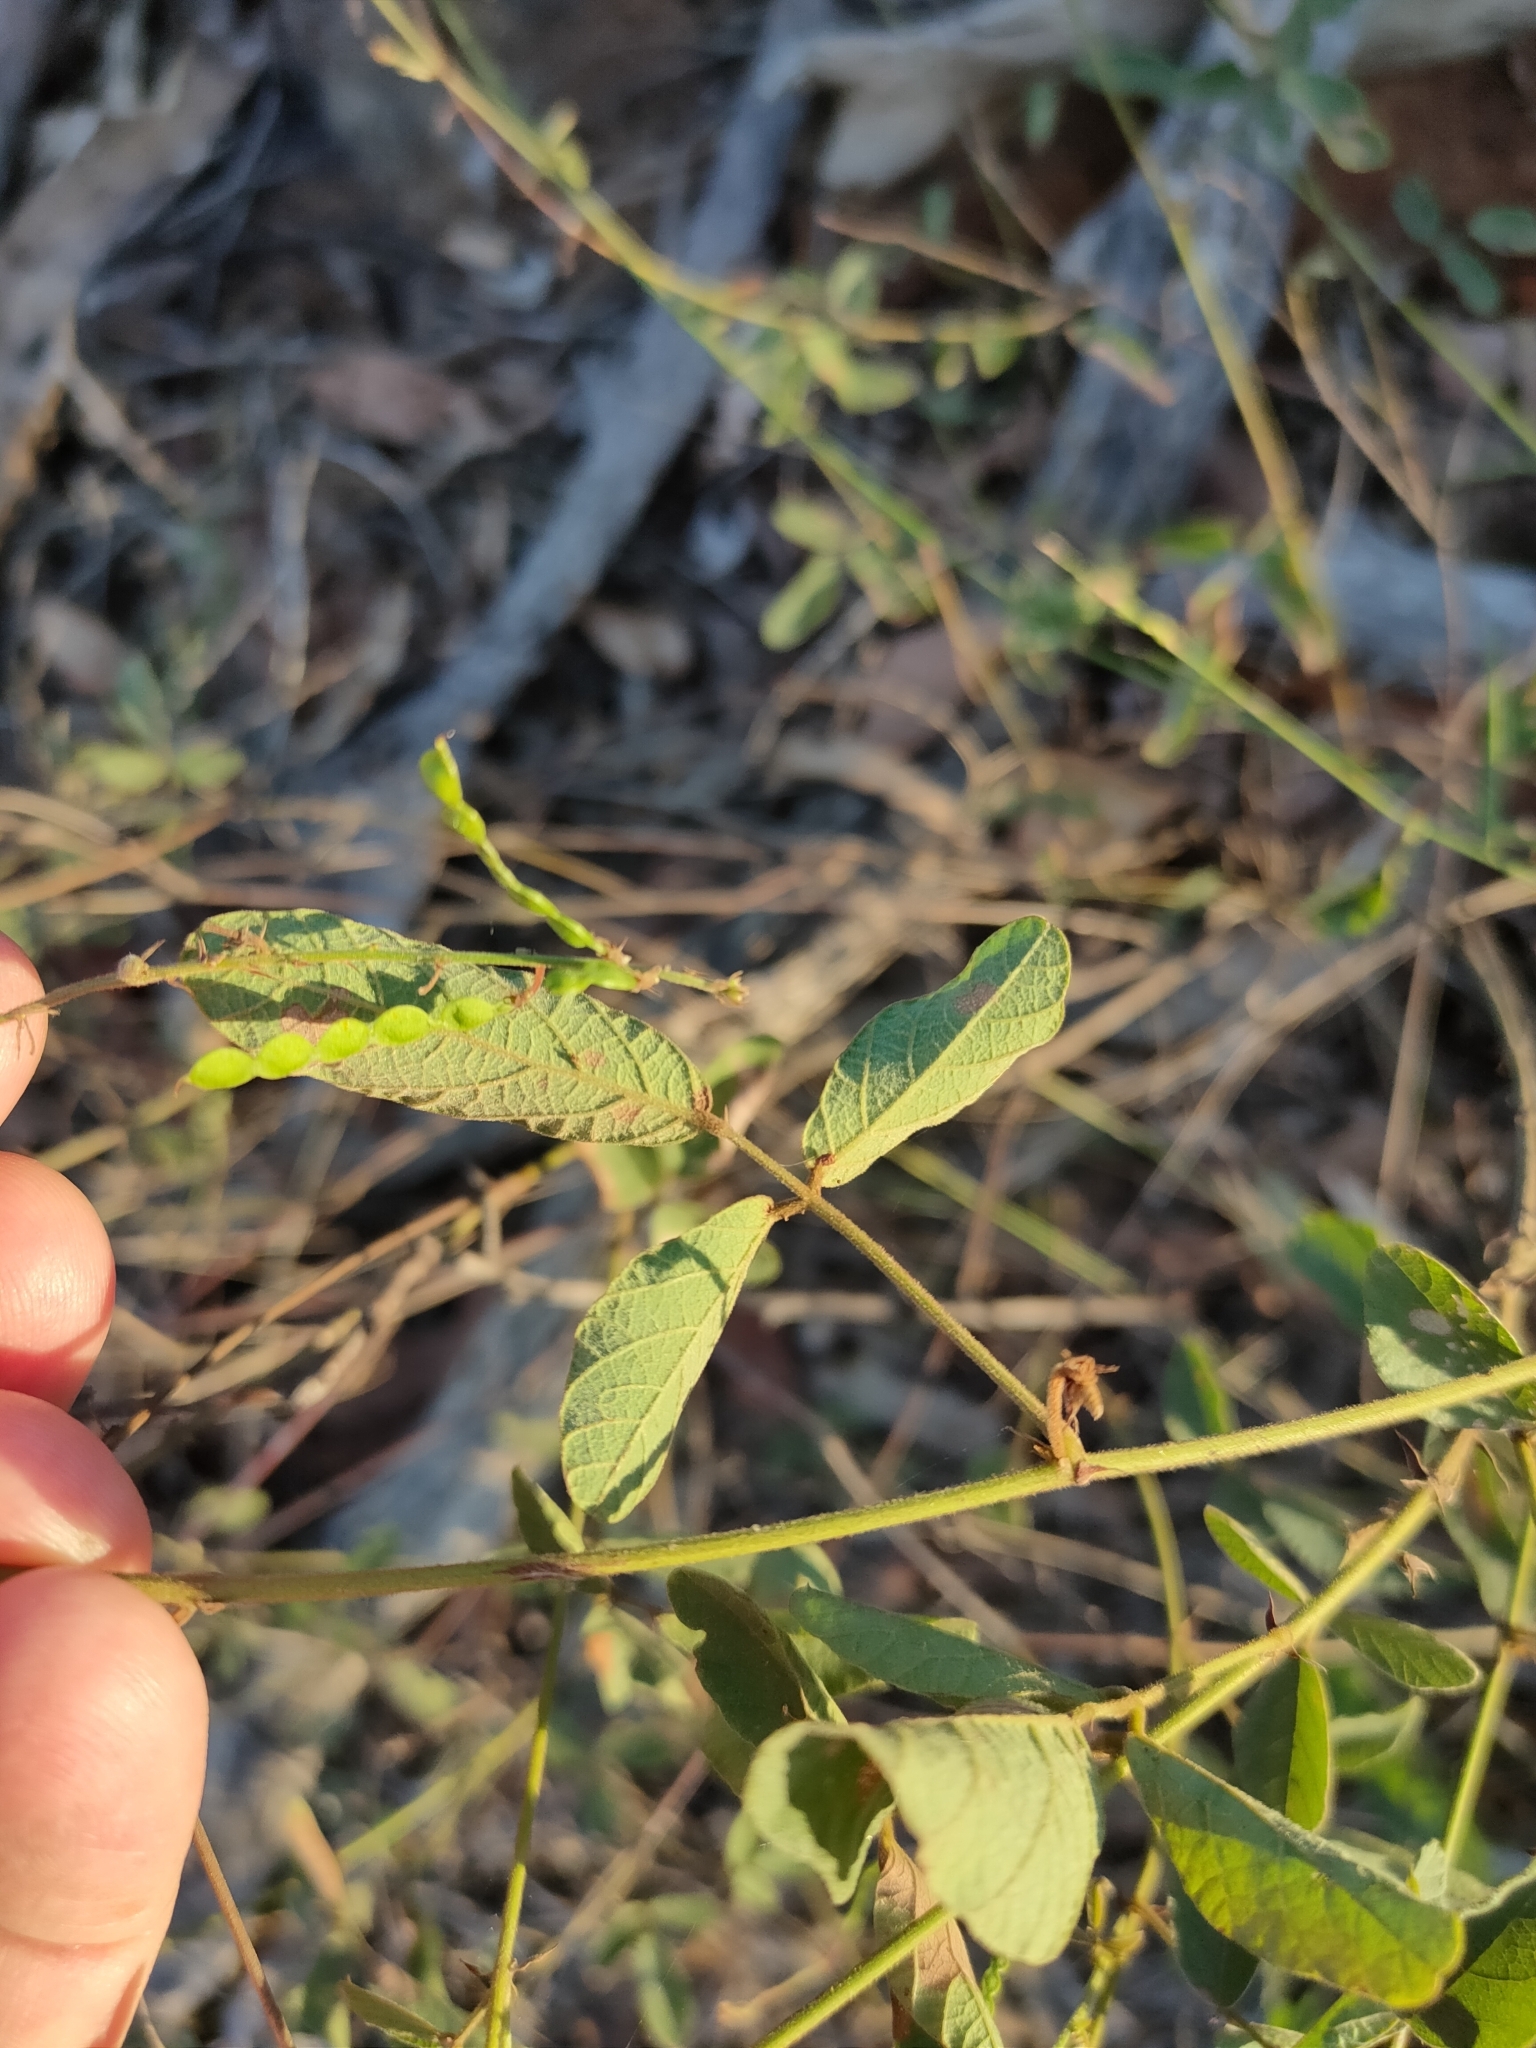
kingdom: Plantae
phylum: Tracheophyta
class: Magnoliopsida
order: Fabales
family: Fabaceae
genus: Maekawaea
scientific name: Maekawaea rhytidophylla
